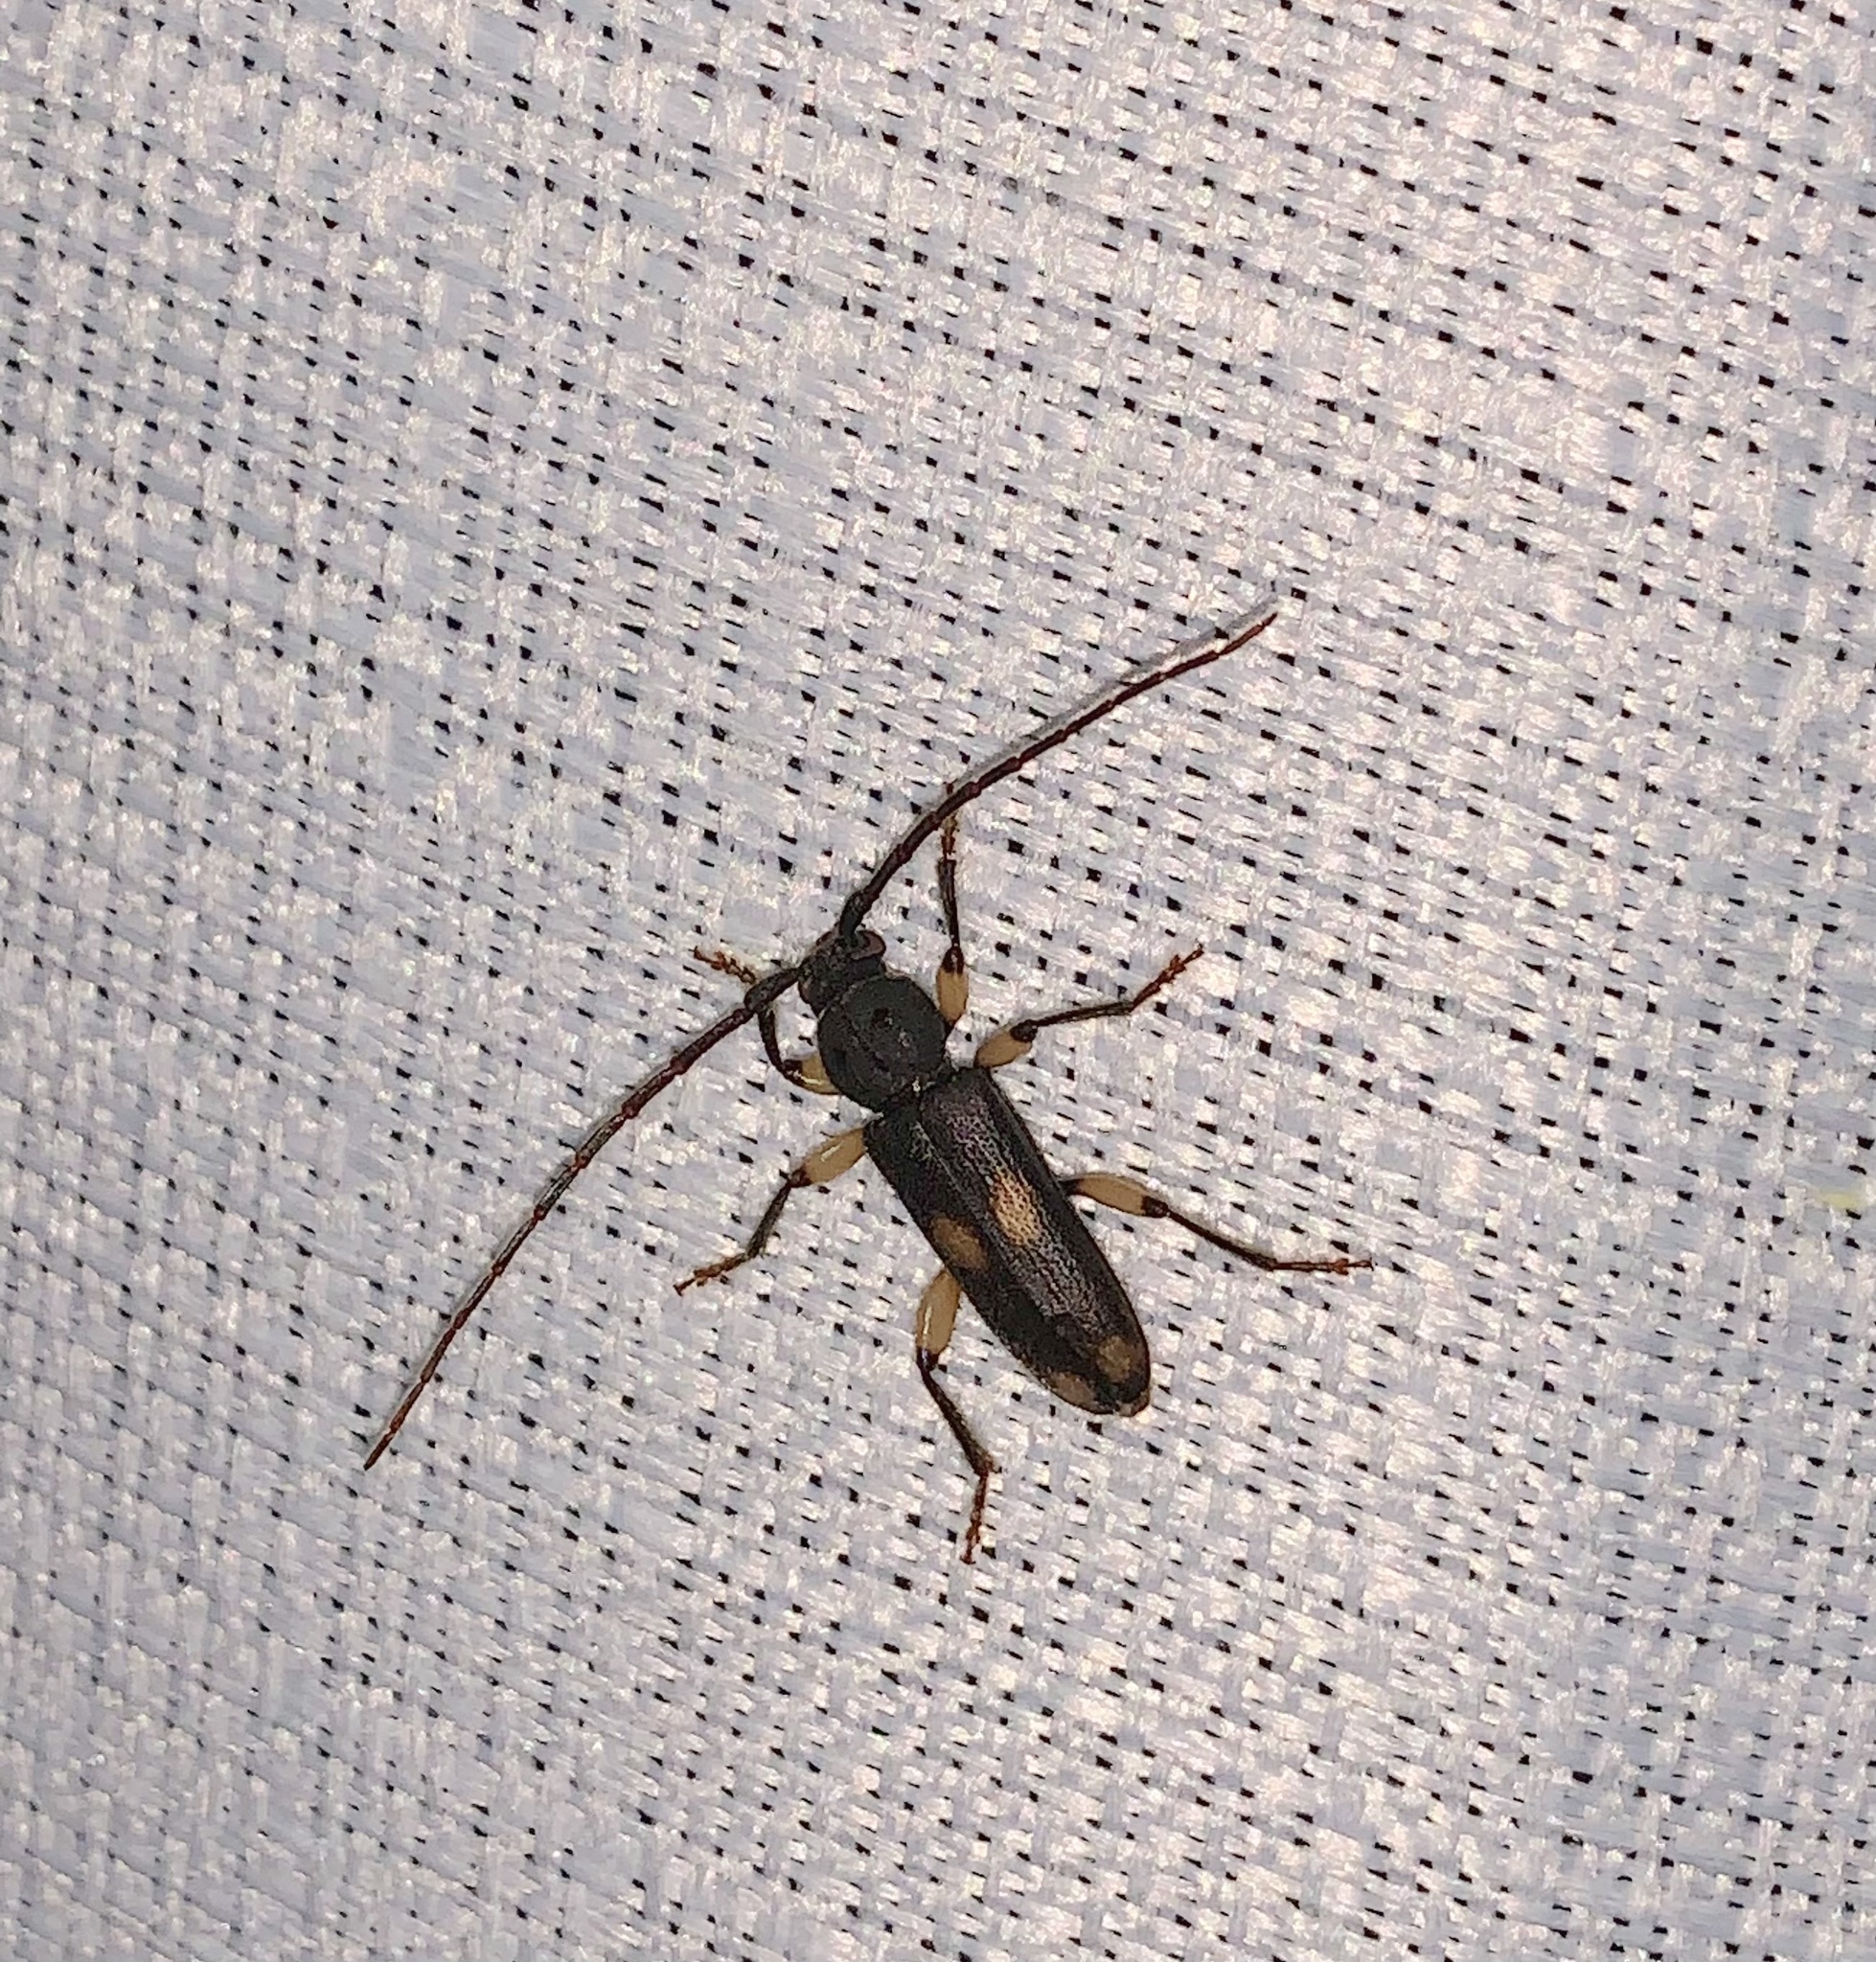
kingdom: Animalia
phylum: Arthropoda
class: Insecta
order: Coleoptera
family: Cerambycidae
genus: Tylonotus
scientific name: Tylonotus bimaculatus
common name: Ash and privet borer
